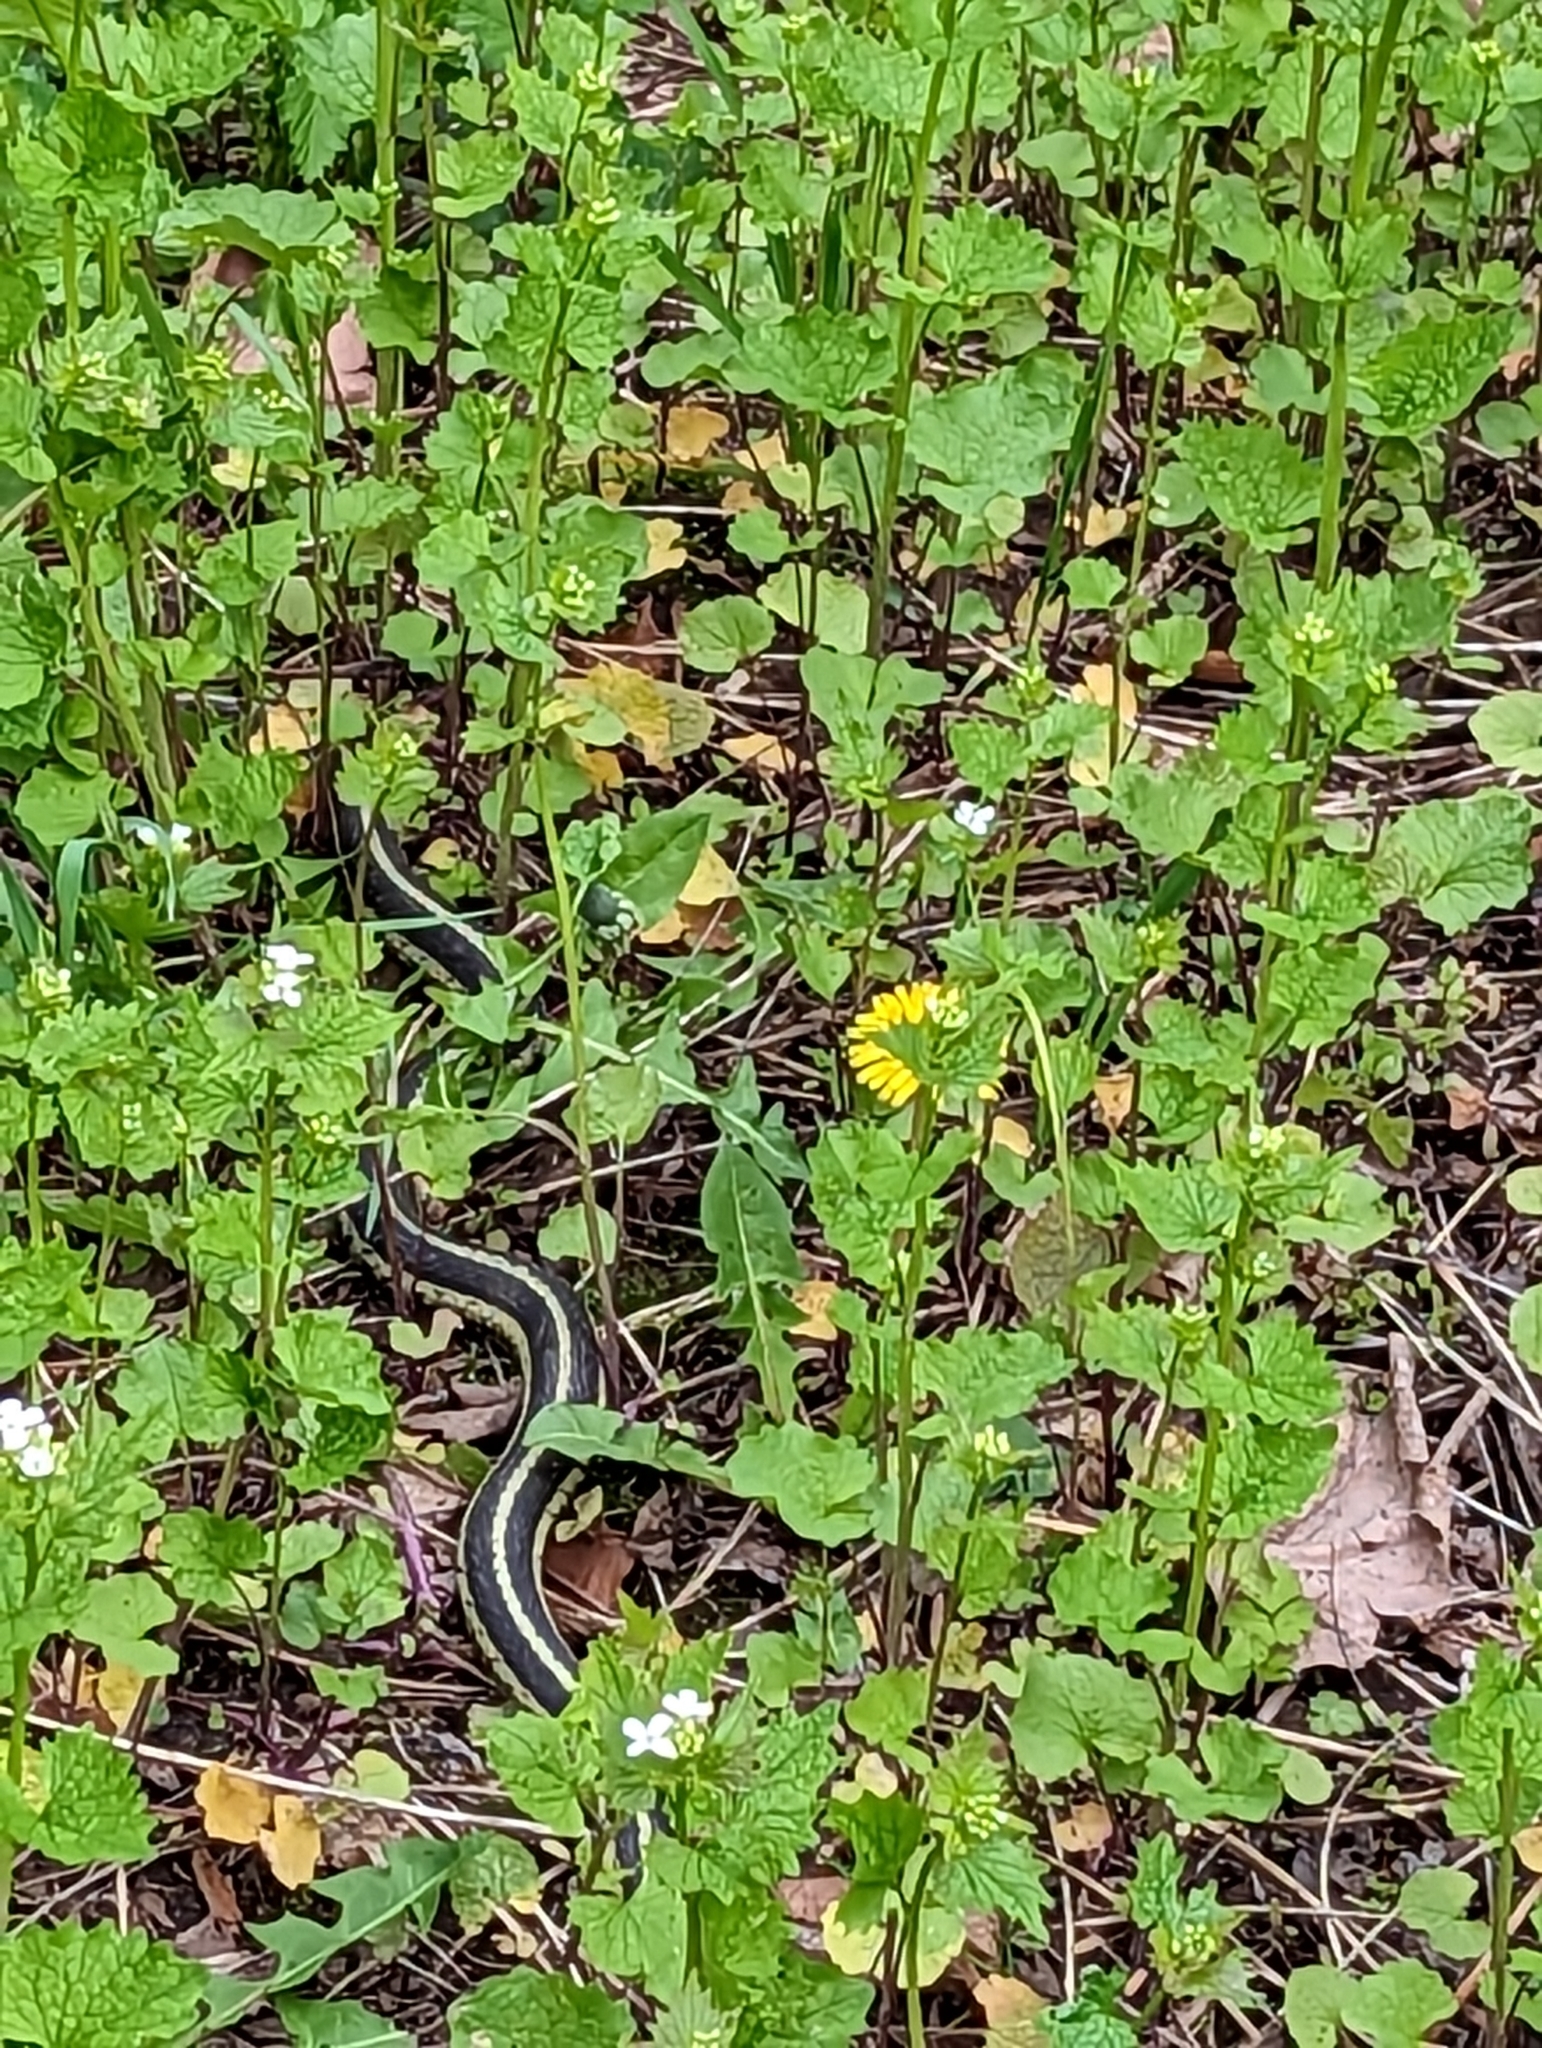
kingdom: Animalia
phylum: Chordata
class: Squamata
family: Colubridae
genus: Thamnophis
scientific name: Thamnophis sirtalis
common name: Common garter snake
